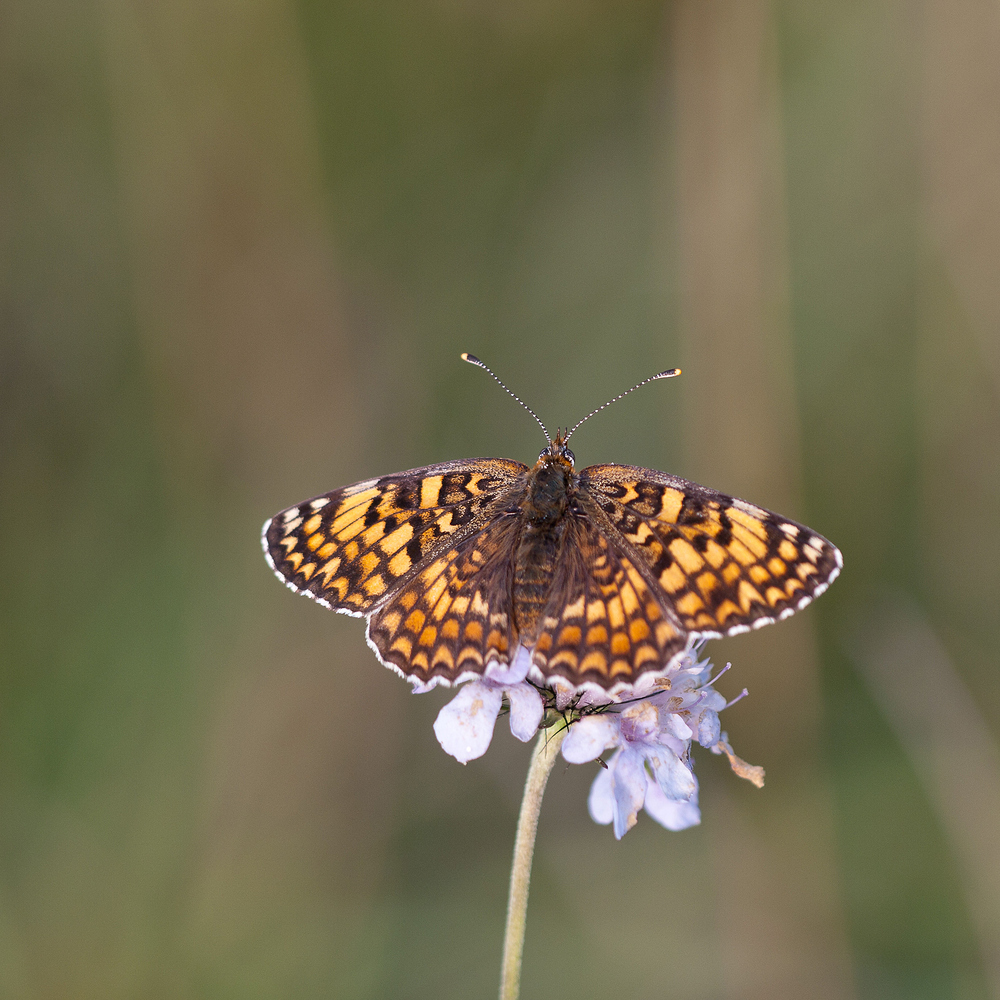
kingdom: Animalia
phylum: Arthropoda
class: Insecta
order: Lepidoptera
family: Nymphalidae
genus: Melitaea
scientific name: Melitaea phoebe
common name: Knapweed fritillary
